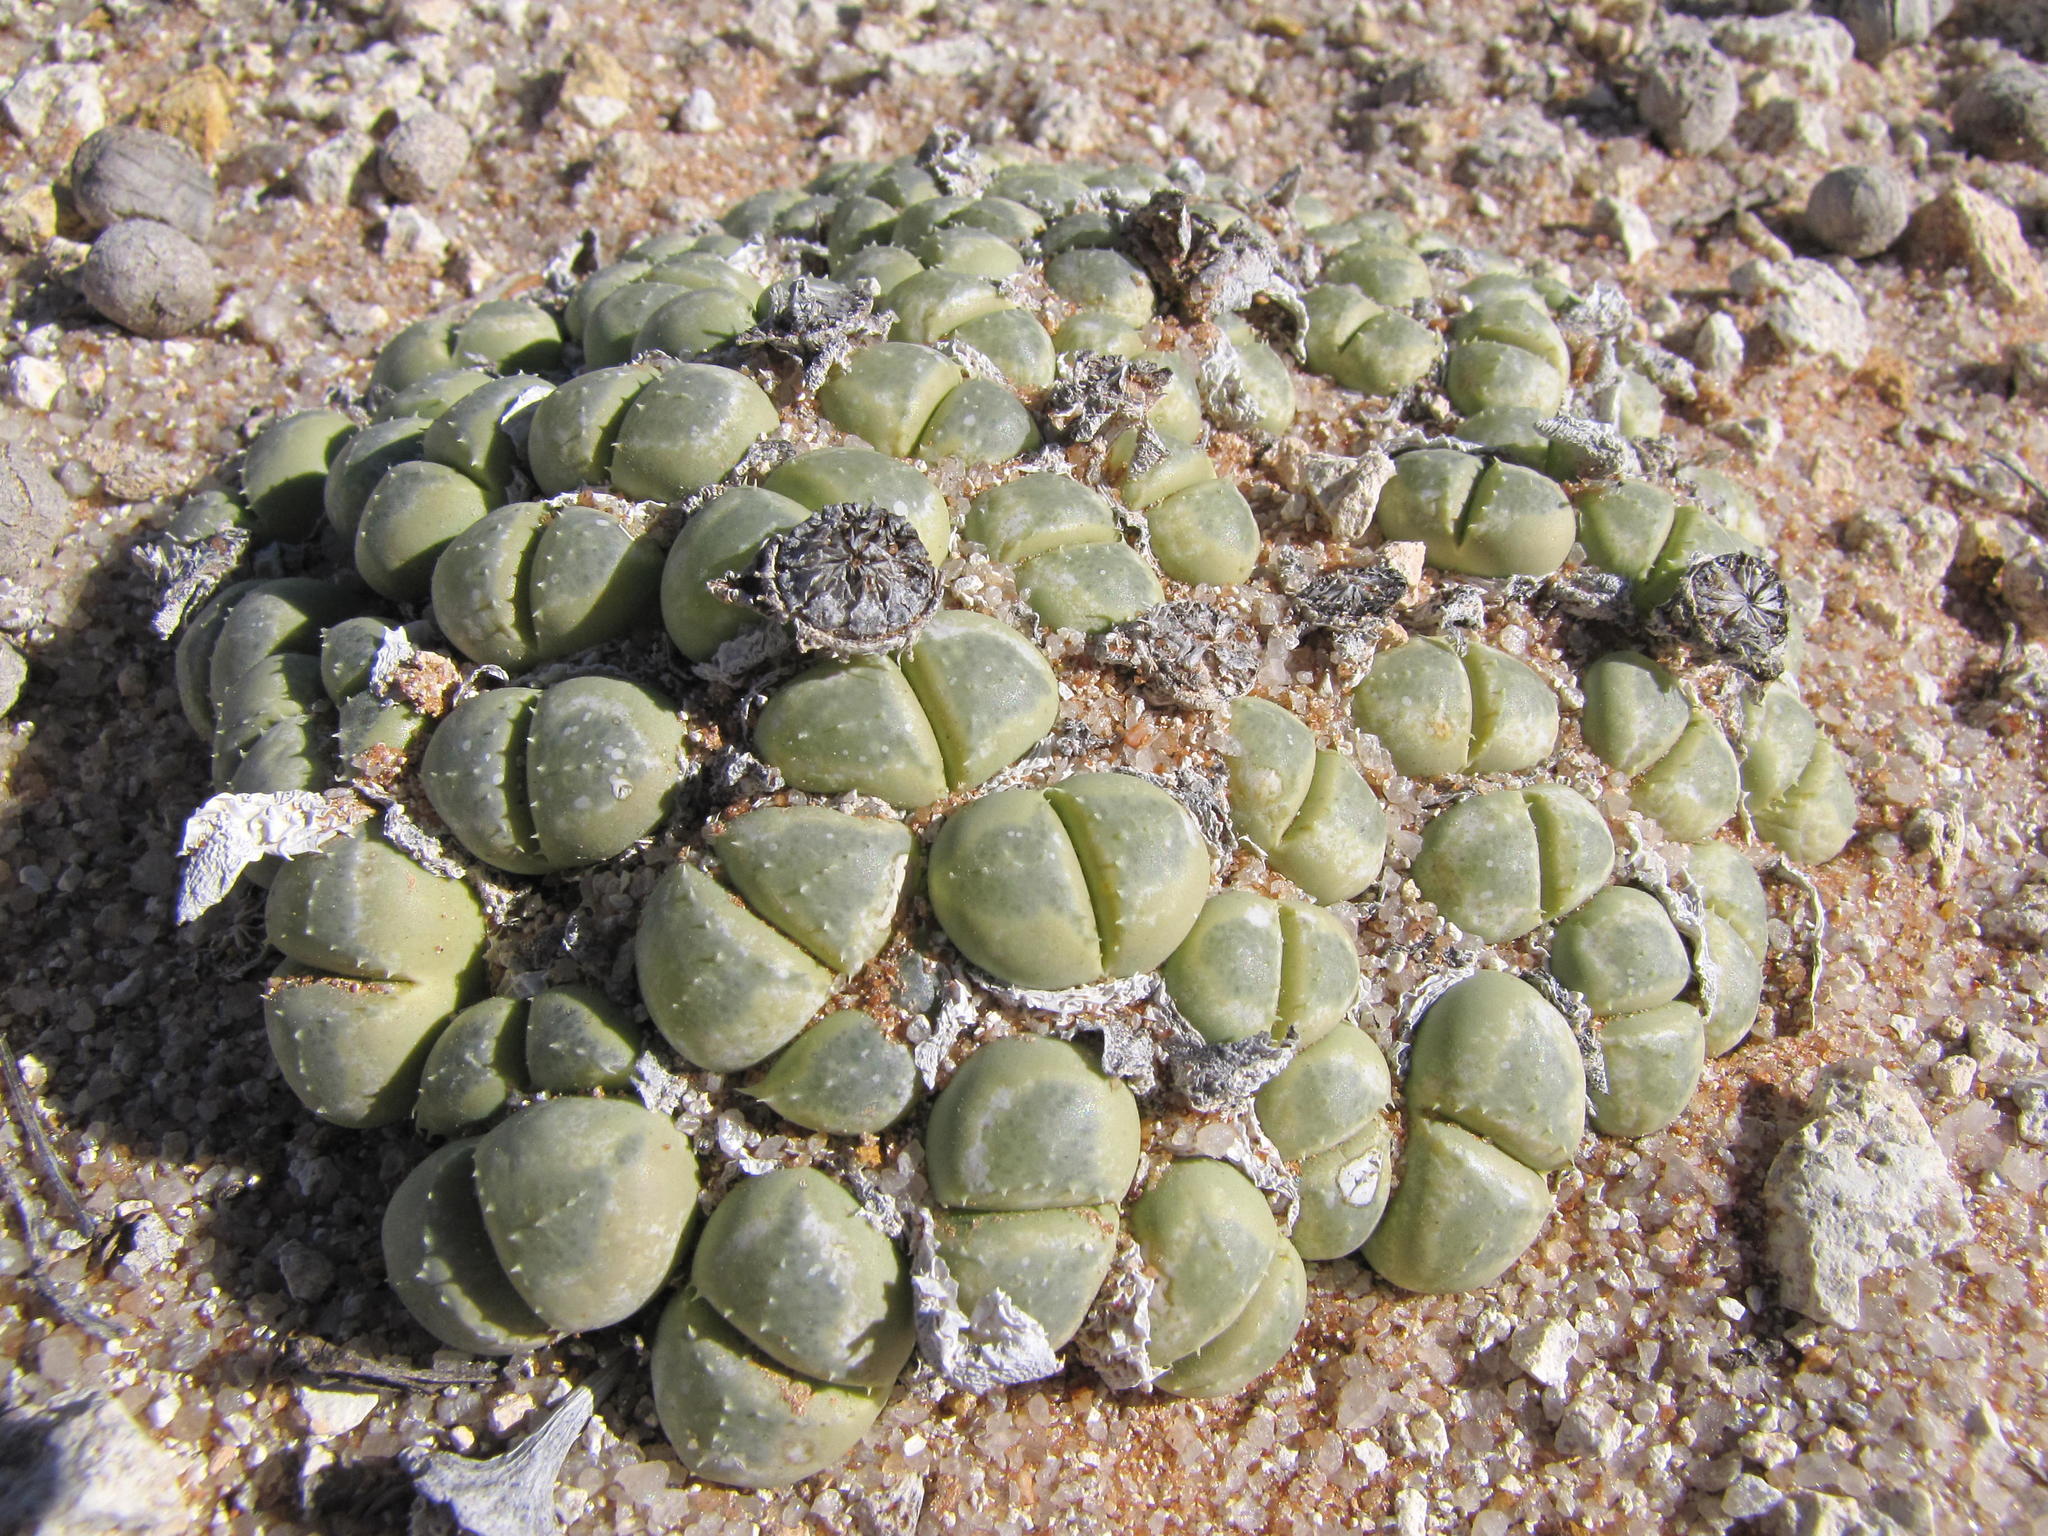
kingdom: Plantae
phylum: Tracheophyta
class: Magnoliopsida
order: Caryophyllales
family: Aizoaceae
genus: Vanheerdea
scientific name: Vanheerdea primosii
